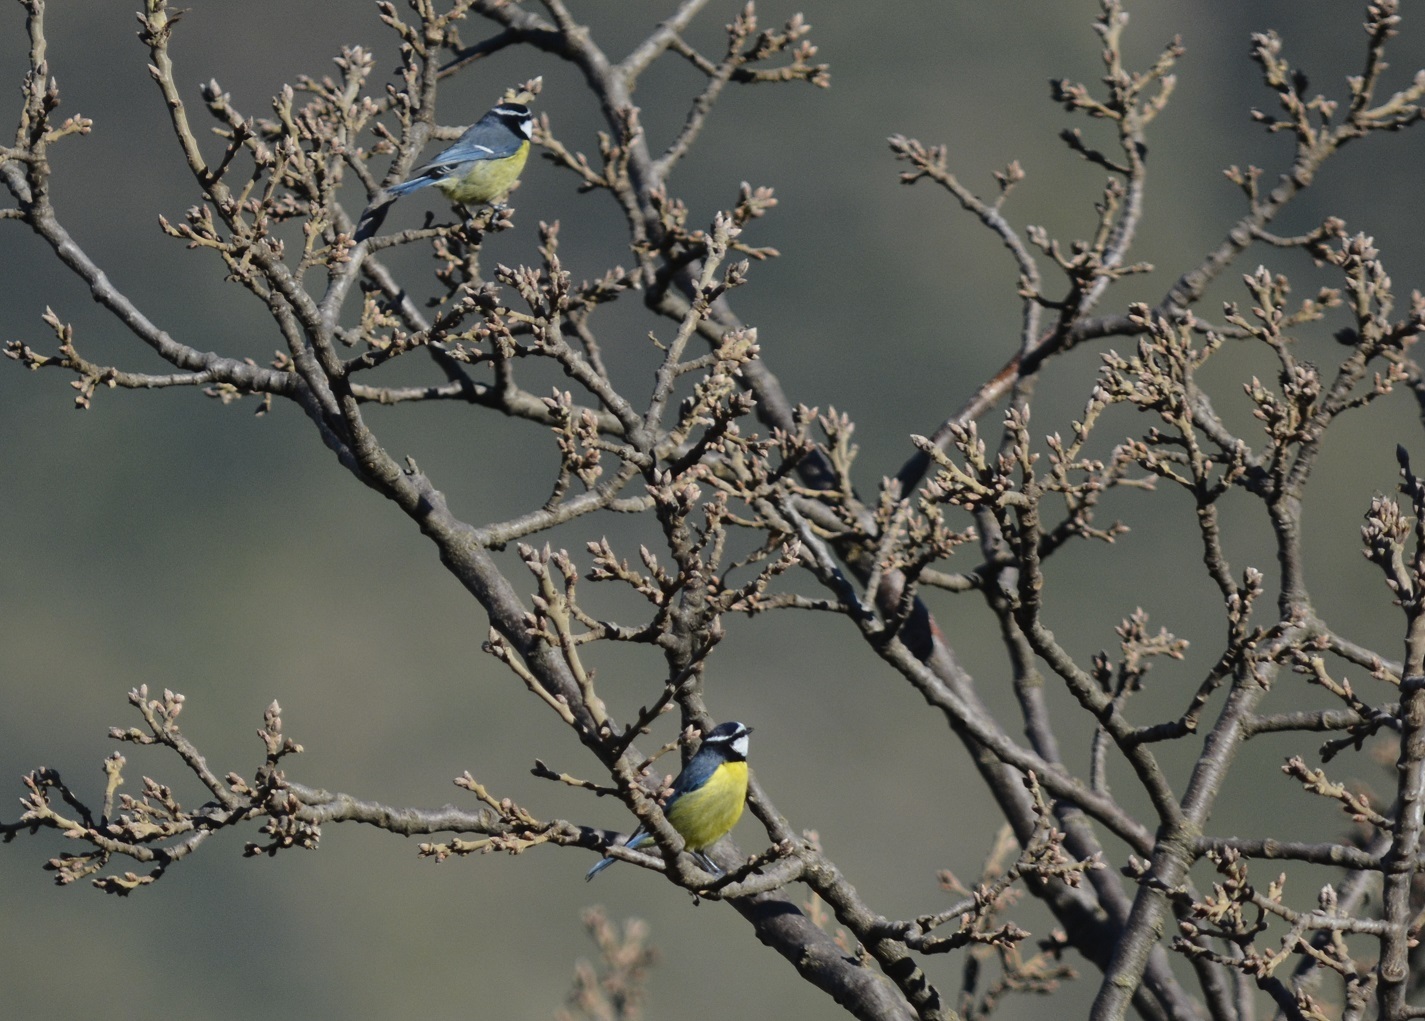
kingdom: Animalia
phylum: Chordata
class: Aves
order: Passeriformes
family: Paridae
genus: Cyanistes
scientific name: Cyanistes teneriffae
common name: African blue tit
